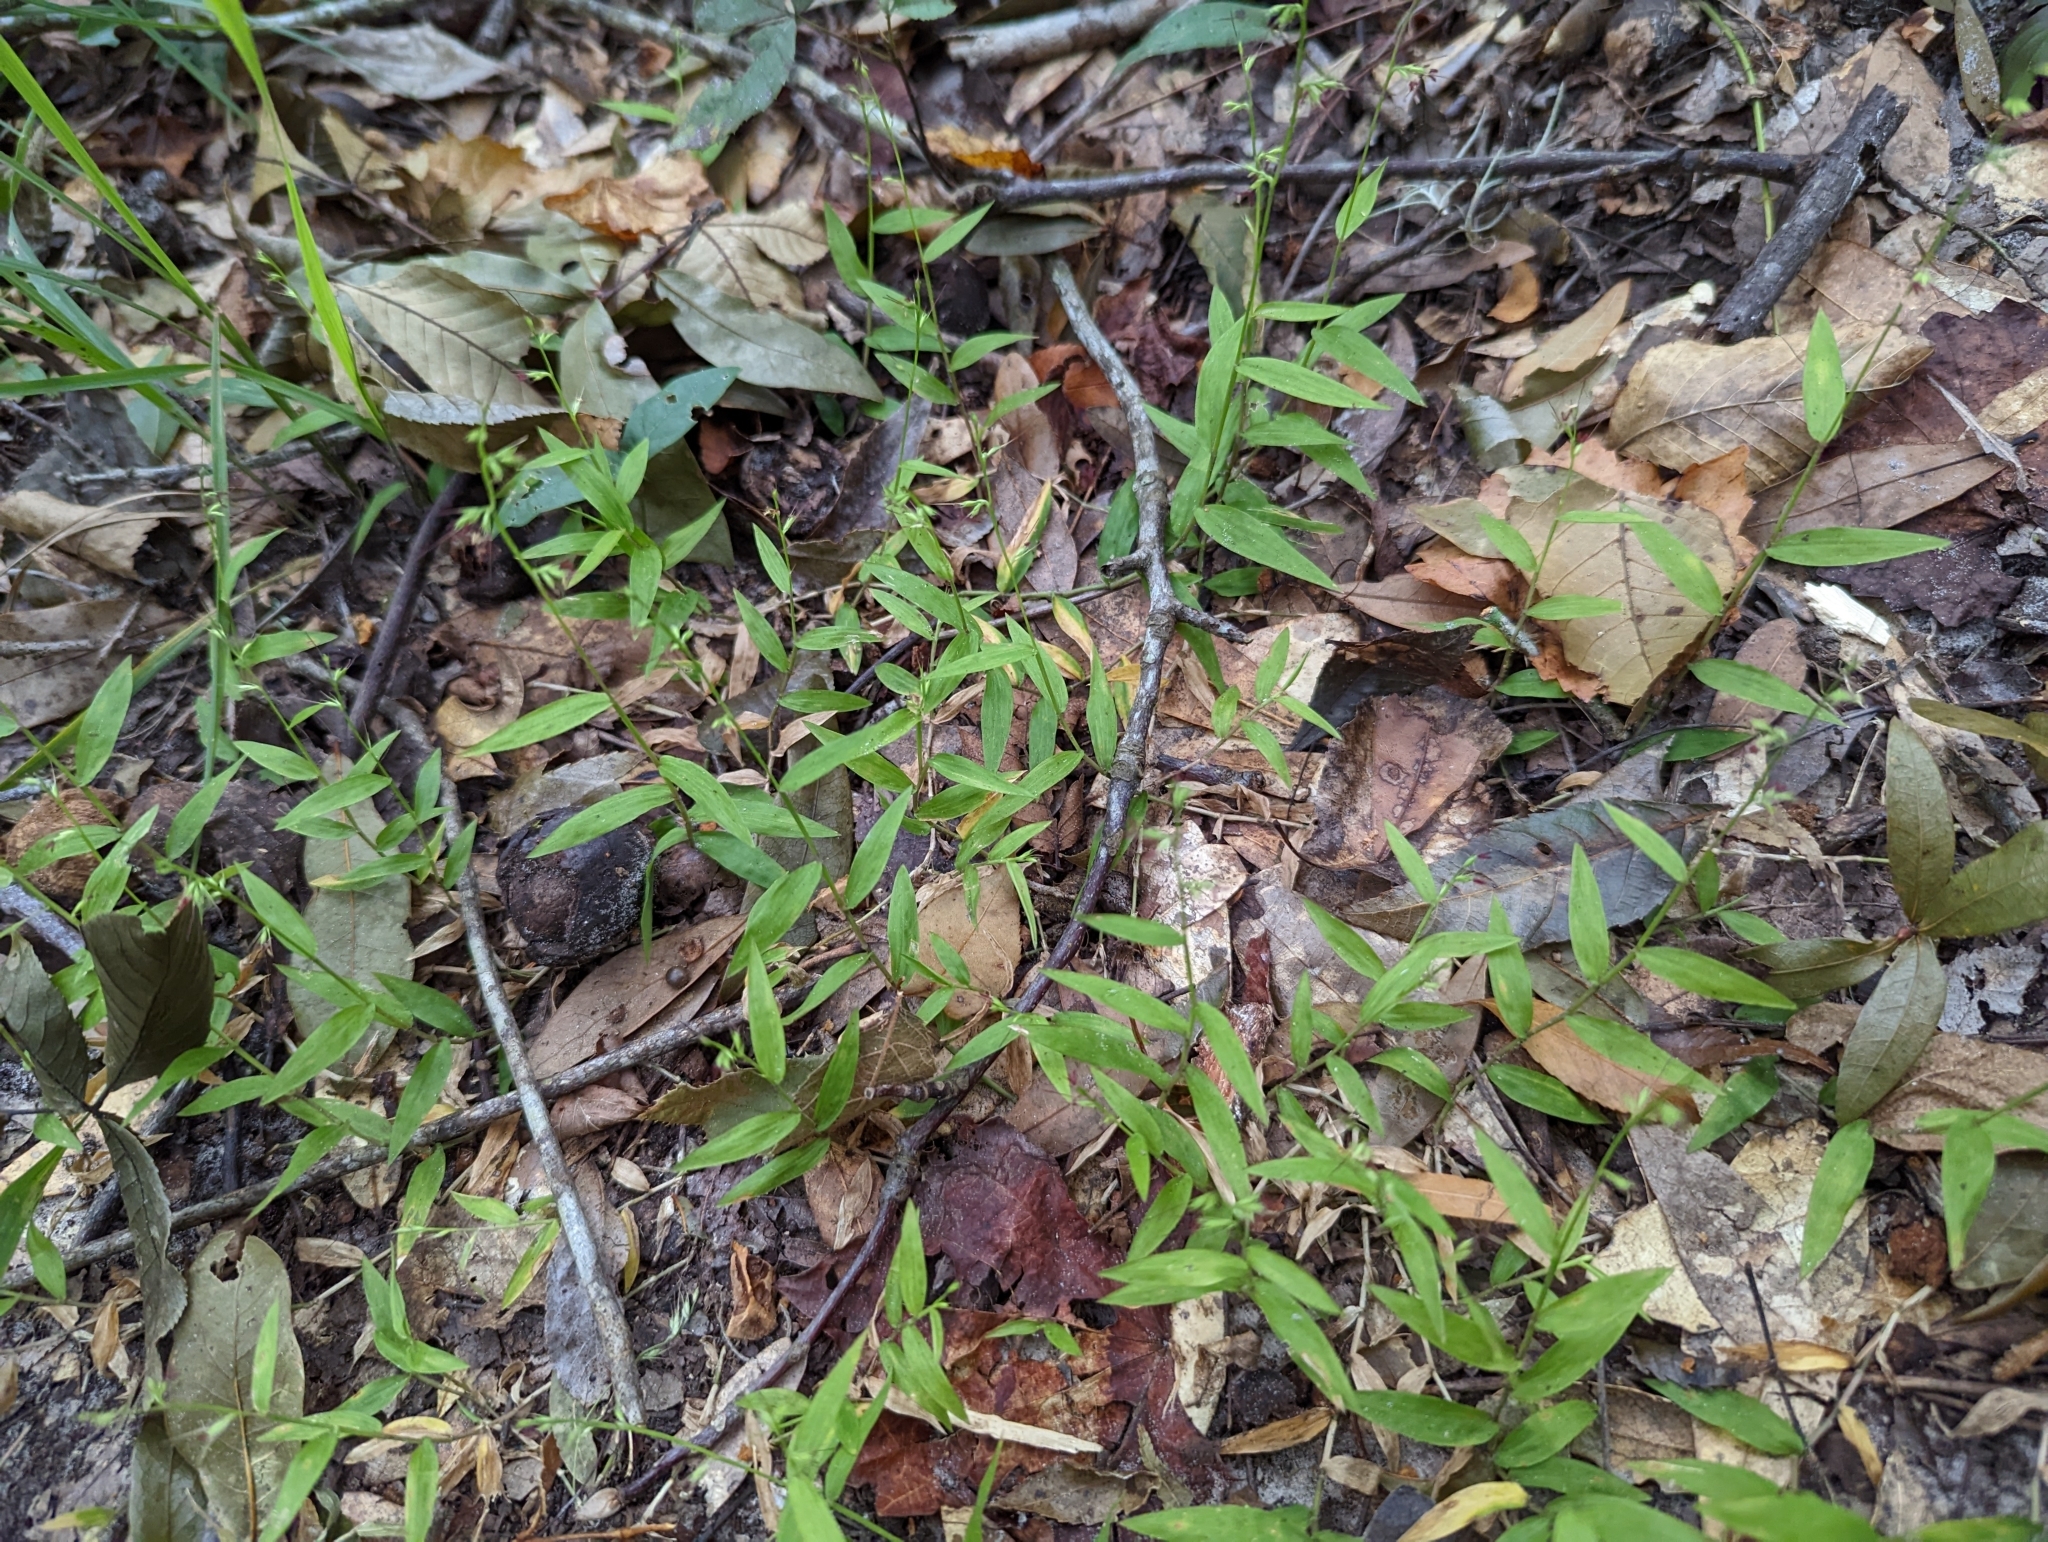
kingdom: Plantae
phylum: Tracheophyta
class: Liliopsida
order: Poales
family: Poaceae
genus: Oplismenus
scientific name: Oplismenus hirtellus
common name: Basketgrass
